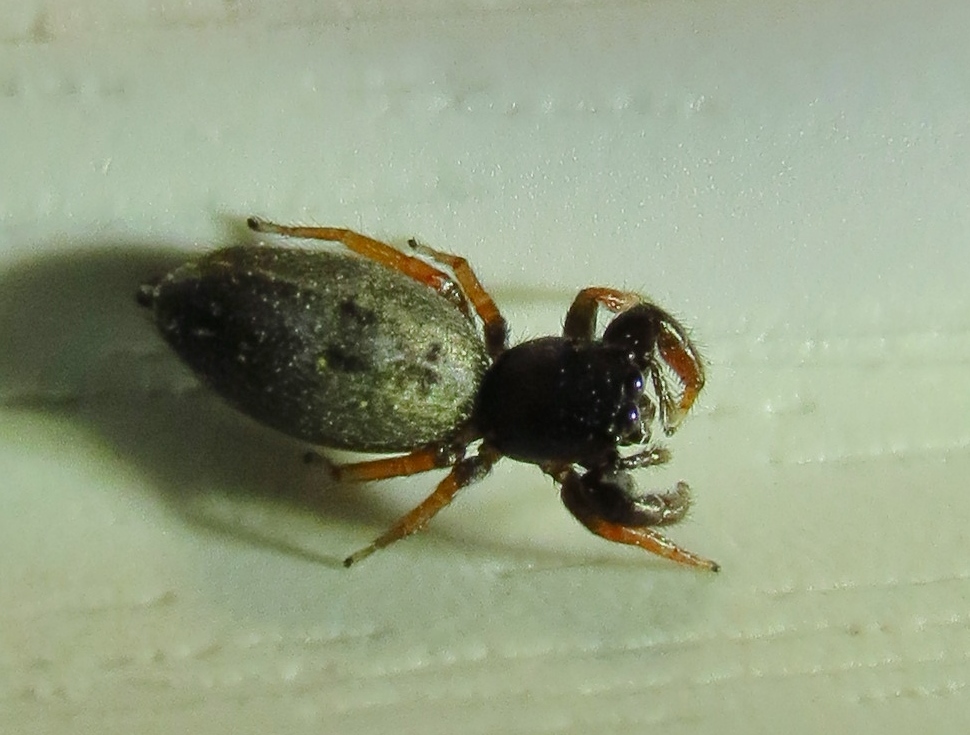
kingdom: Animalia
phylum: Arthropoda
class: Arachnida
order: Araneae
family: Salticidae
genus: Metacyrba
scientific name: Metacyrba taeniola
